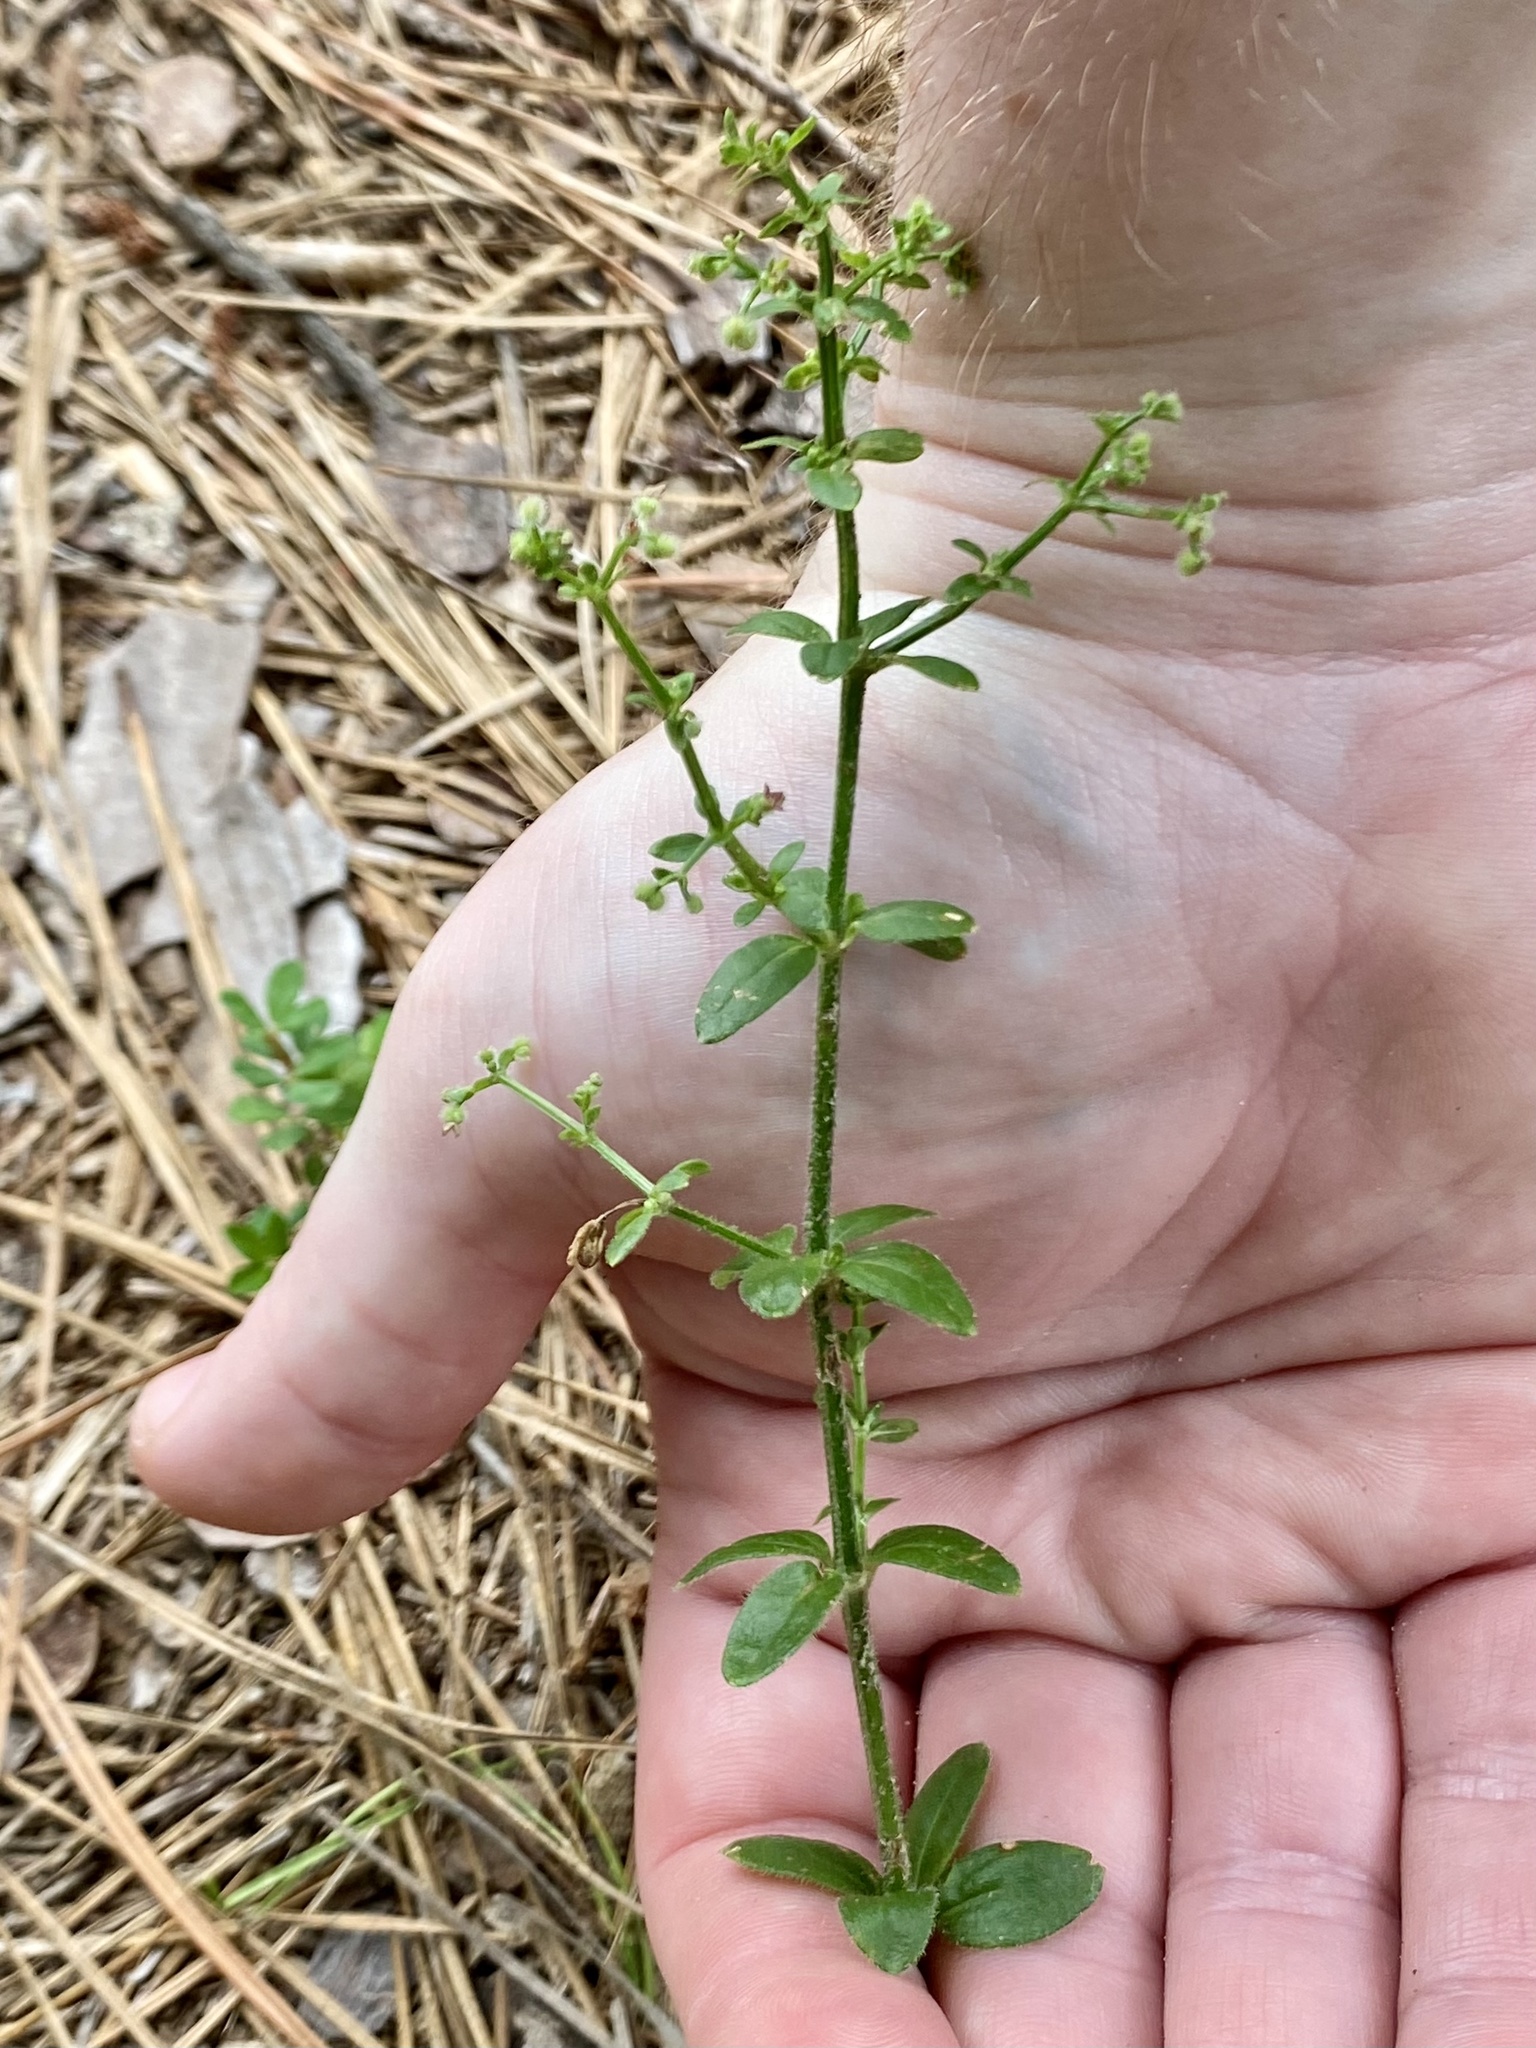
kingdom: Plantae
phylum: Tracheophyta
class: Magnoliopsida
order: Gentianales
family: Rubiaceae
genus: Galium
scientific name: Galium pilosum
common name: Hairy bedstraw
